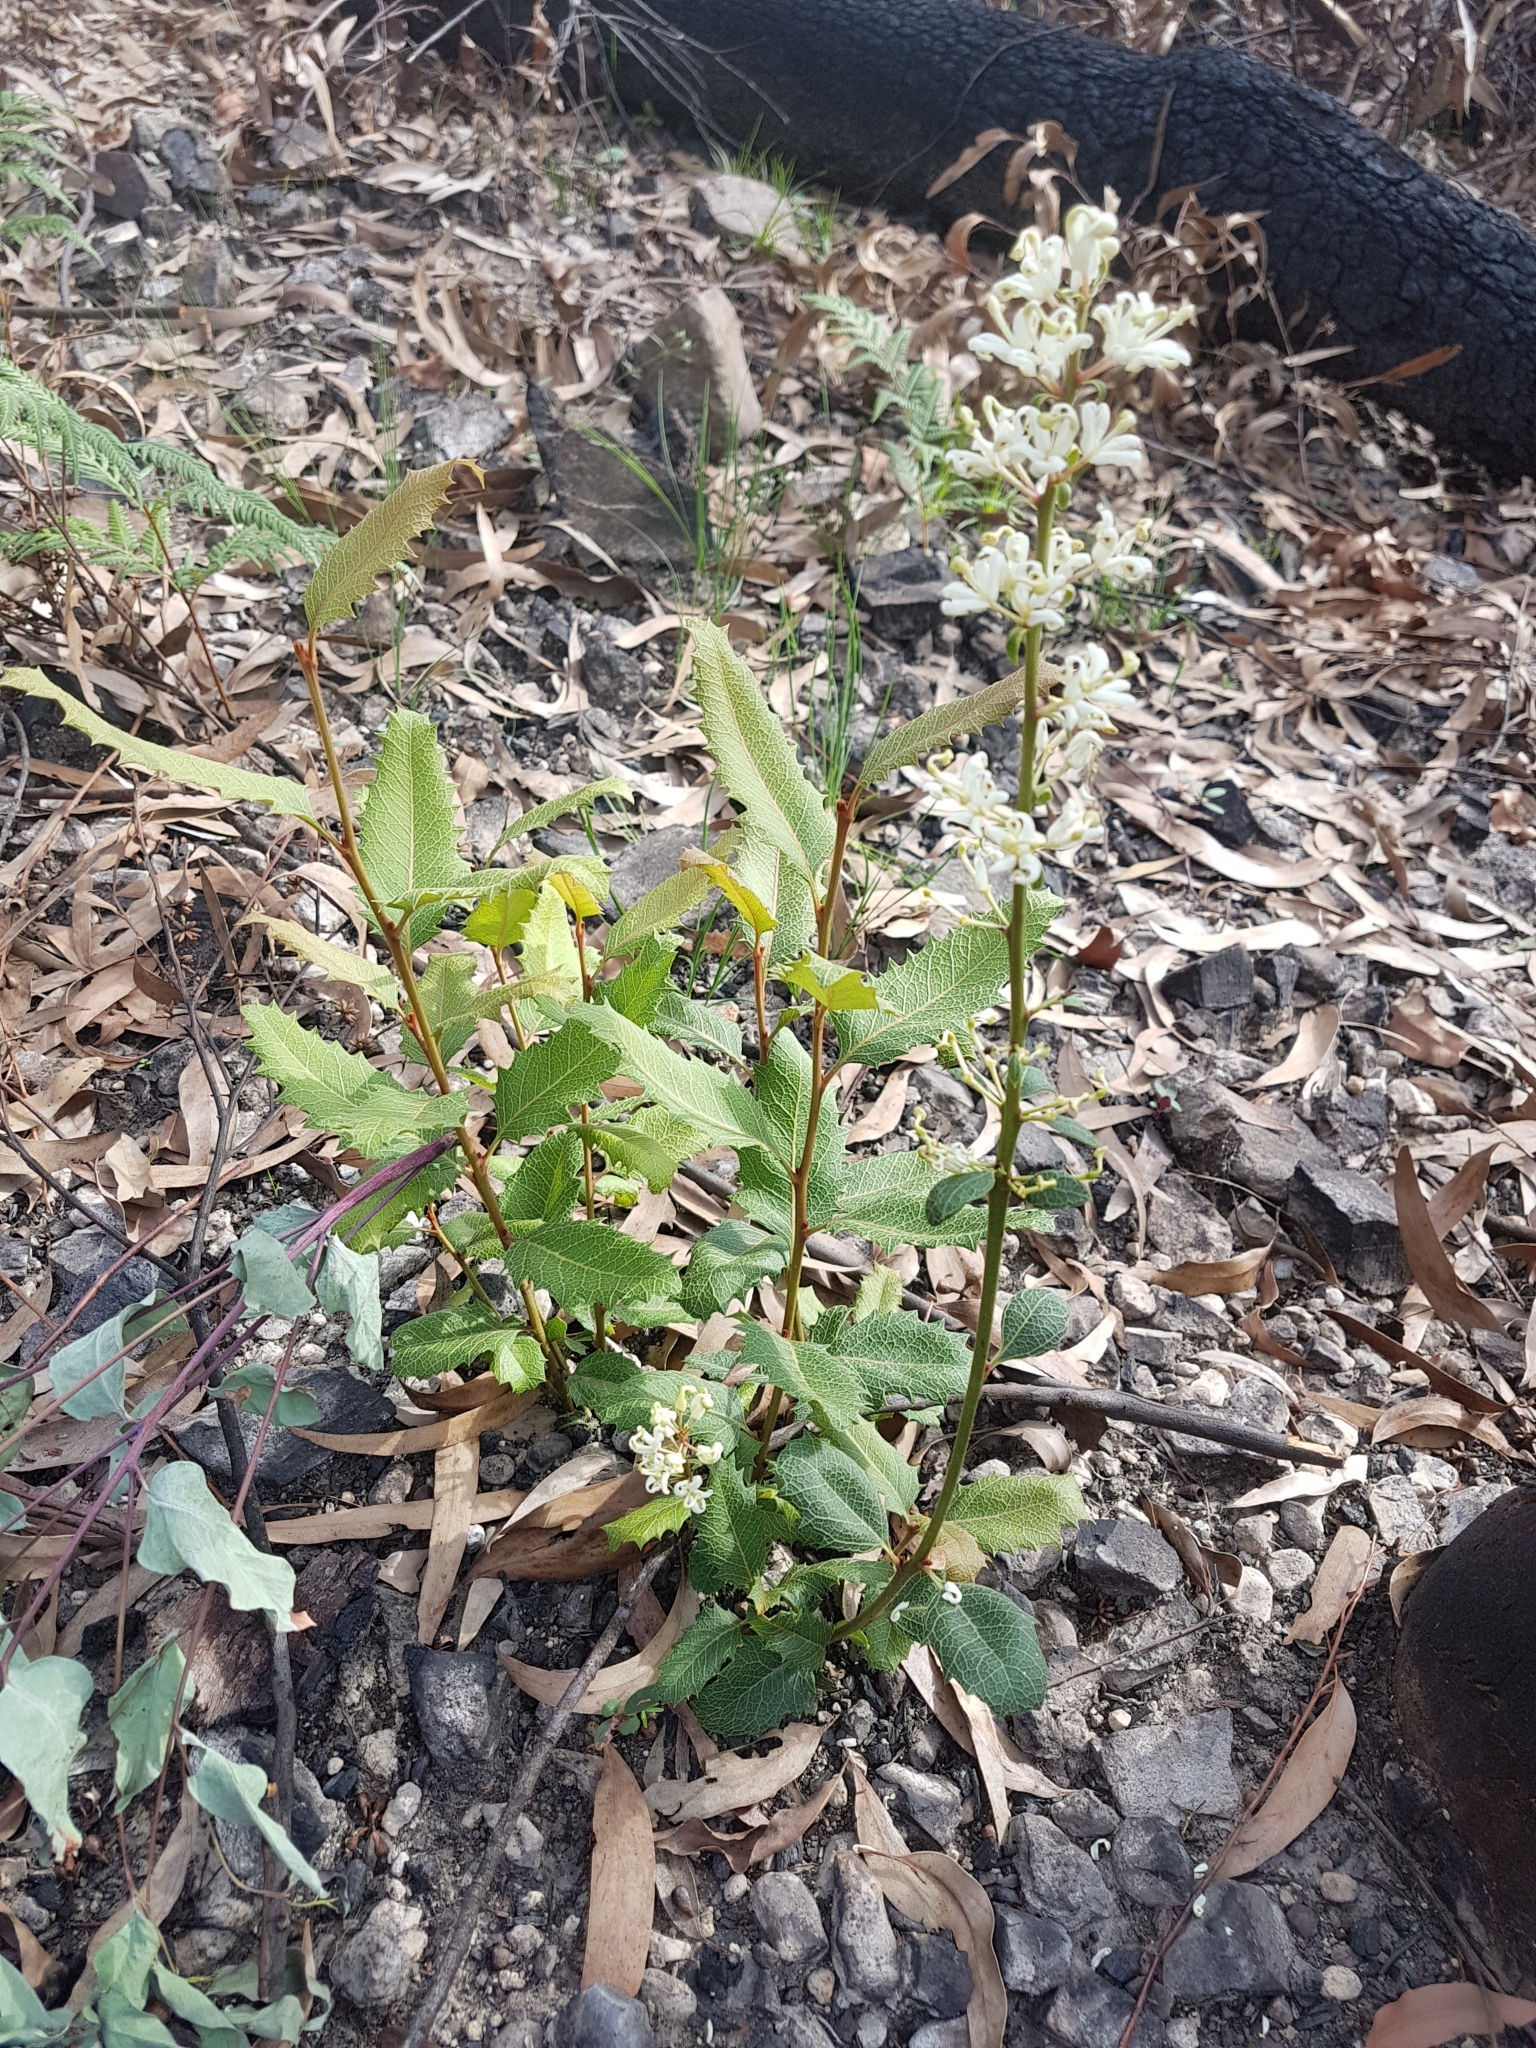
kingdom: Plantae
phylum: Tracheophyta
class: Magnoliopsida
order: Proteales
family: Proteaceae
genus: Lomatia
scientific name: Lomatia ilicifolia
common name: Native-holly
